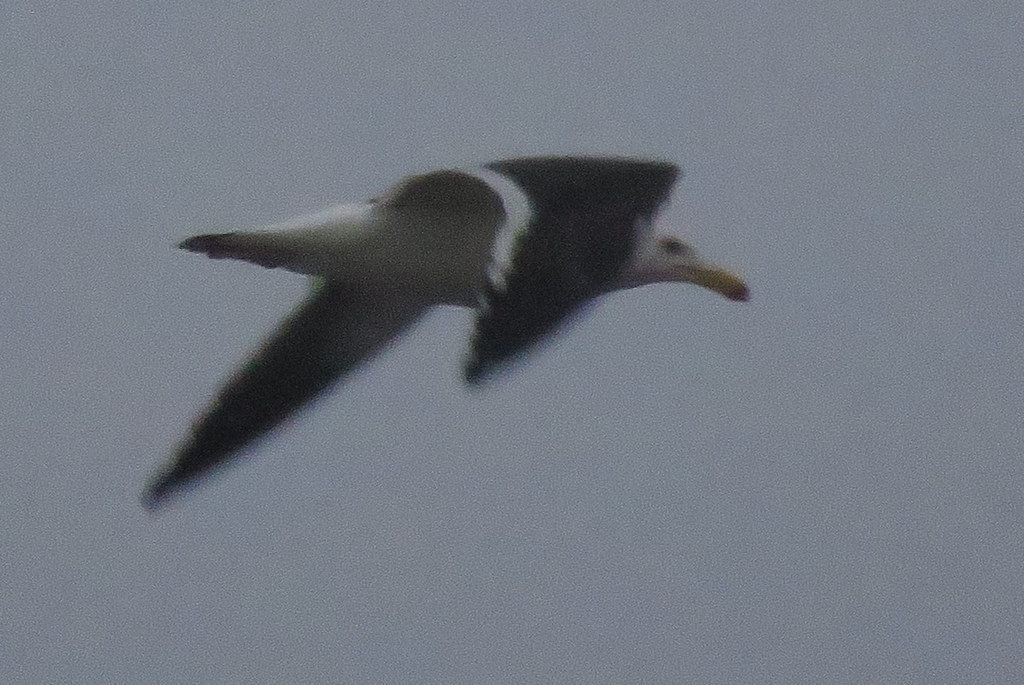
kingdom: Animalia
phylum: Chordata
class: Aves
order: Charadriiformes
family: Laridae
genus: Larus
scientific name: Larus atlanticus
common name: Olrog's gull
